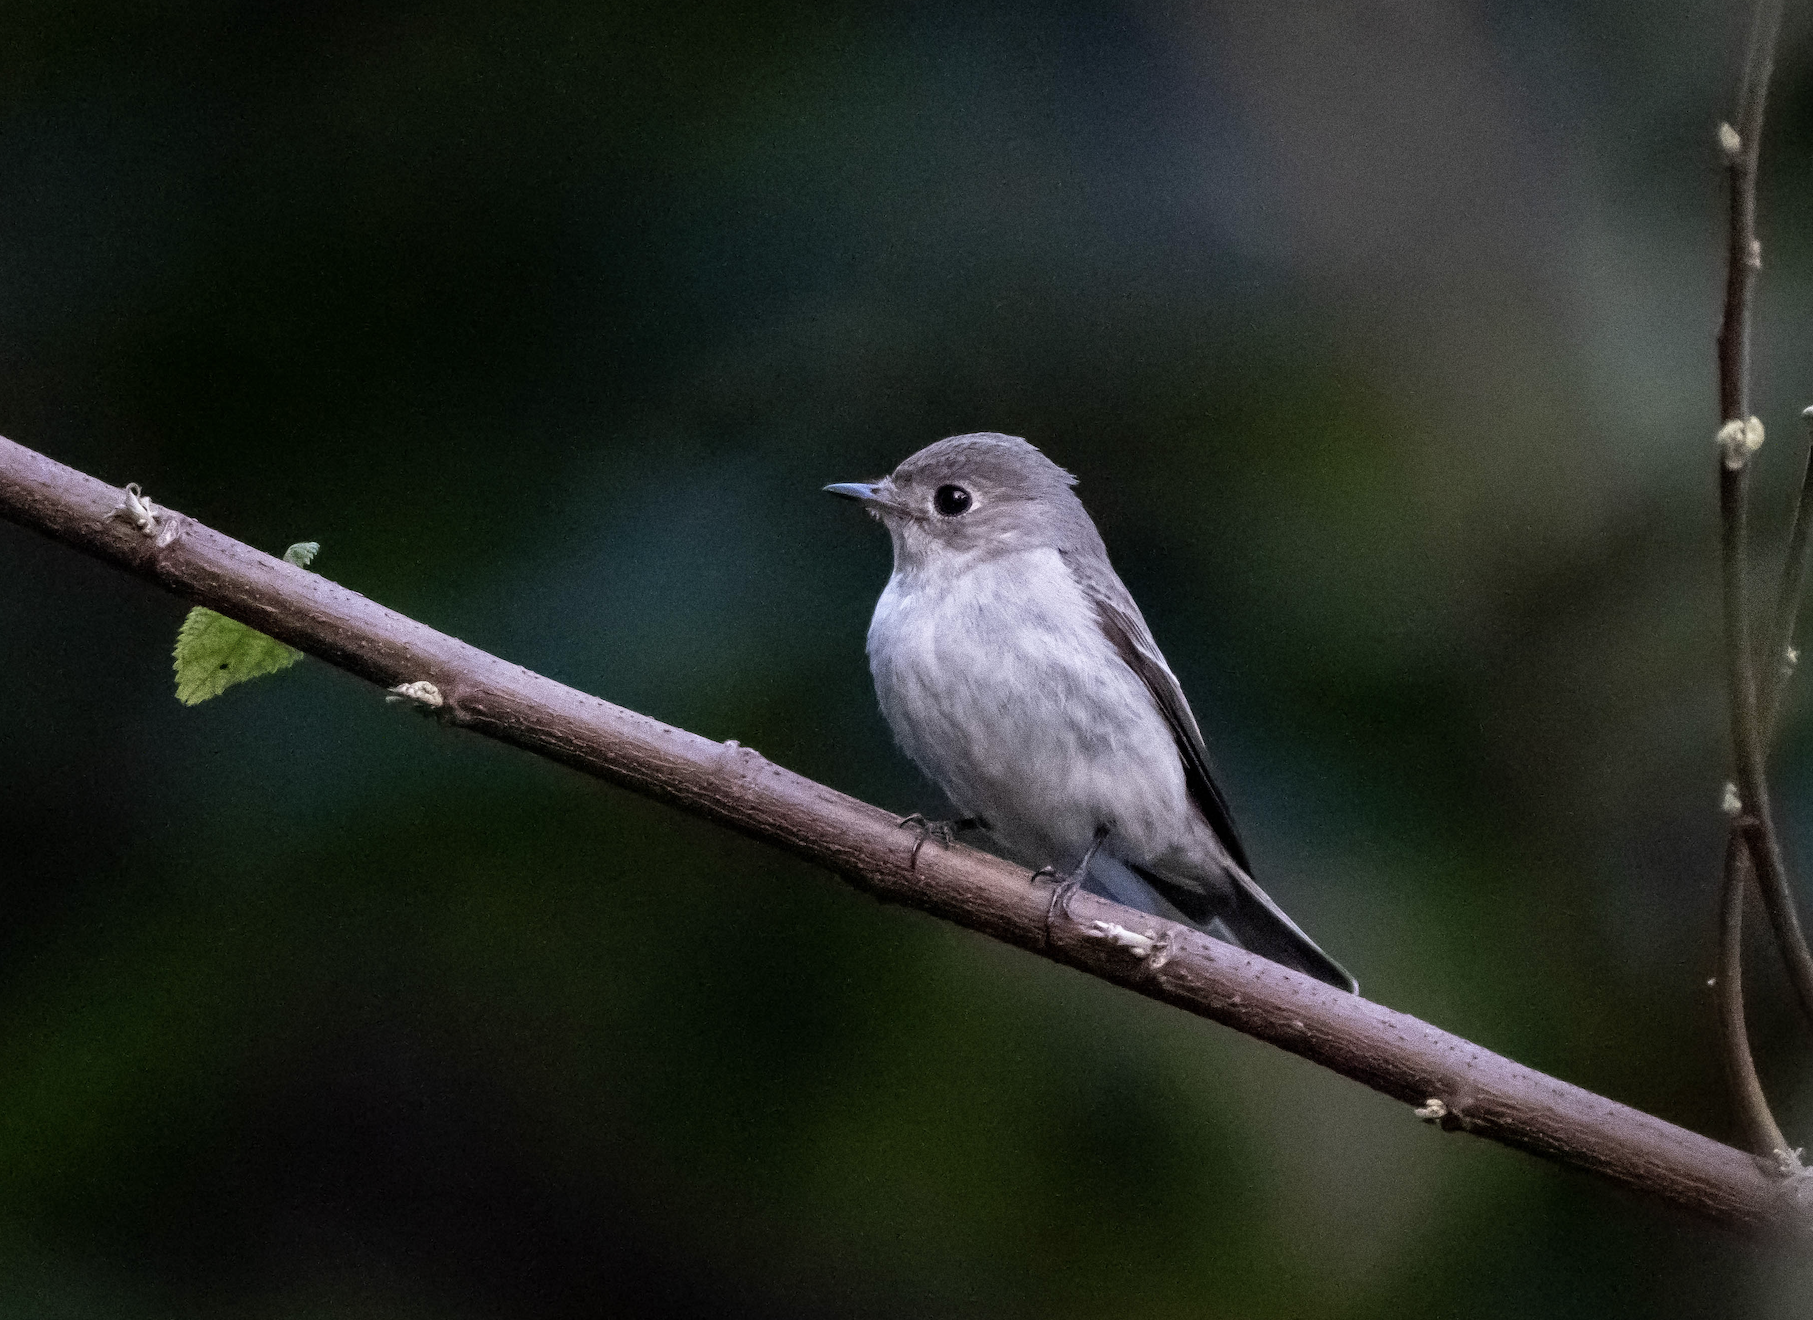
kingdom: Animalia
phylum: Chordata
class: Aves
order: Passeriformes
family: Muscicapidae
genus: Muscicapa
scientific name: Muscicapa latirostris
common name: Asian brown flycatcher
